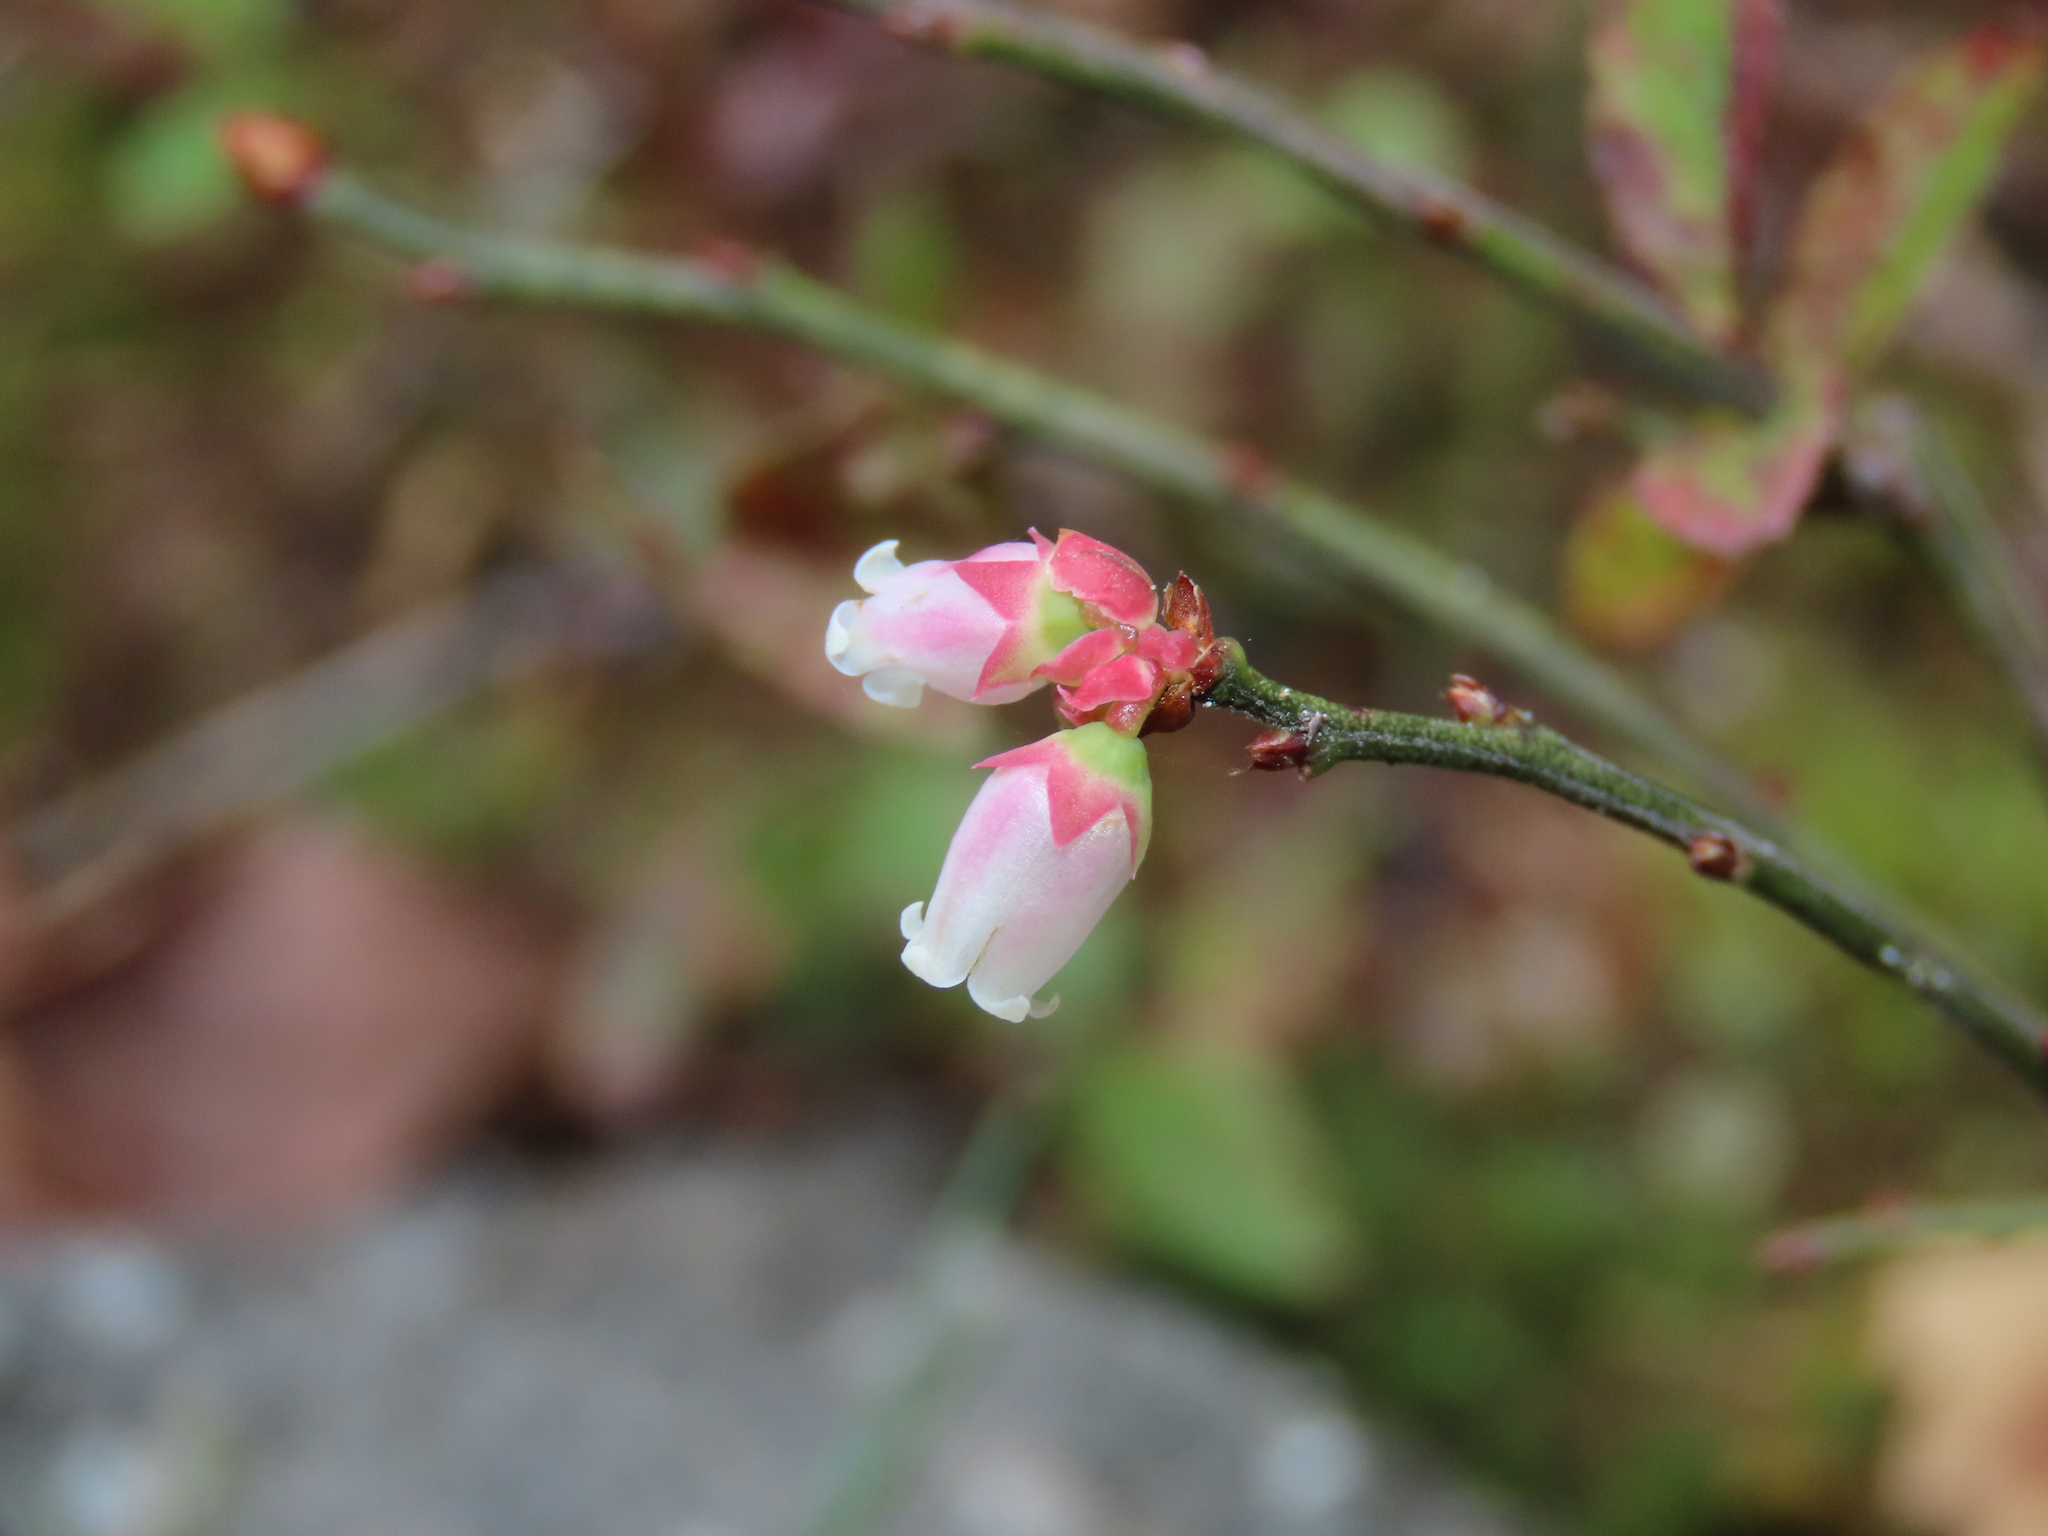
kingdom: Plantae
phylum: Tracheophyta
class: Magnoliopsida
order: Ericales
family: Ericaceae
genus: Vaccinium
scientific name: Vaccinium angustifolium
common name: Early lowbush blueberry
